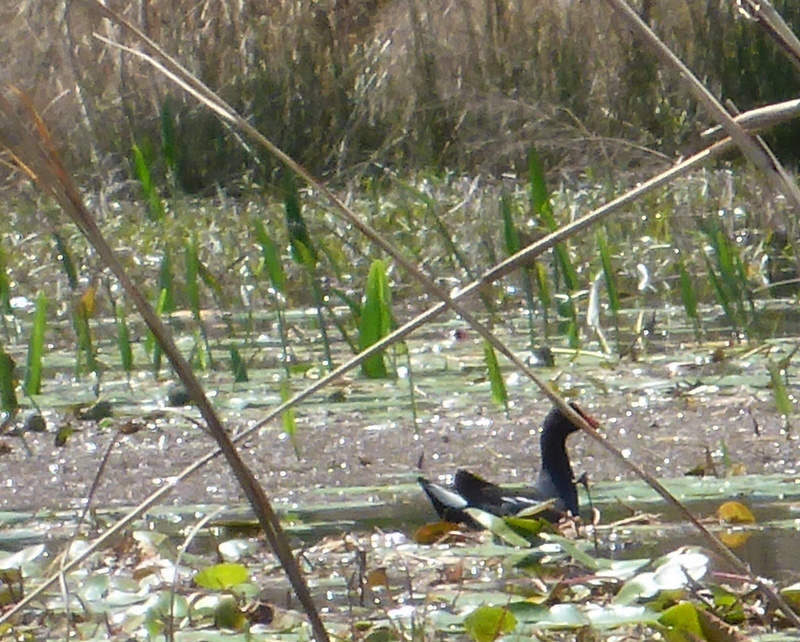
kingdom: Animalia
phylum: Chordata
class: Aves
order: Gruiformes
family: Rallidae
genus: Gallinula
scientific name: Gallinula chloropus
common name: Common moorhen
